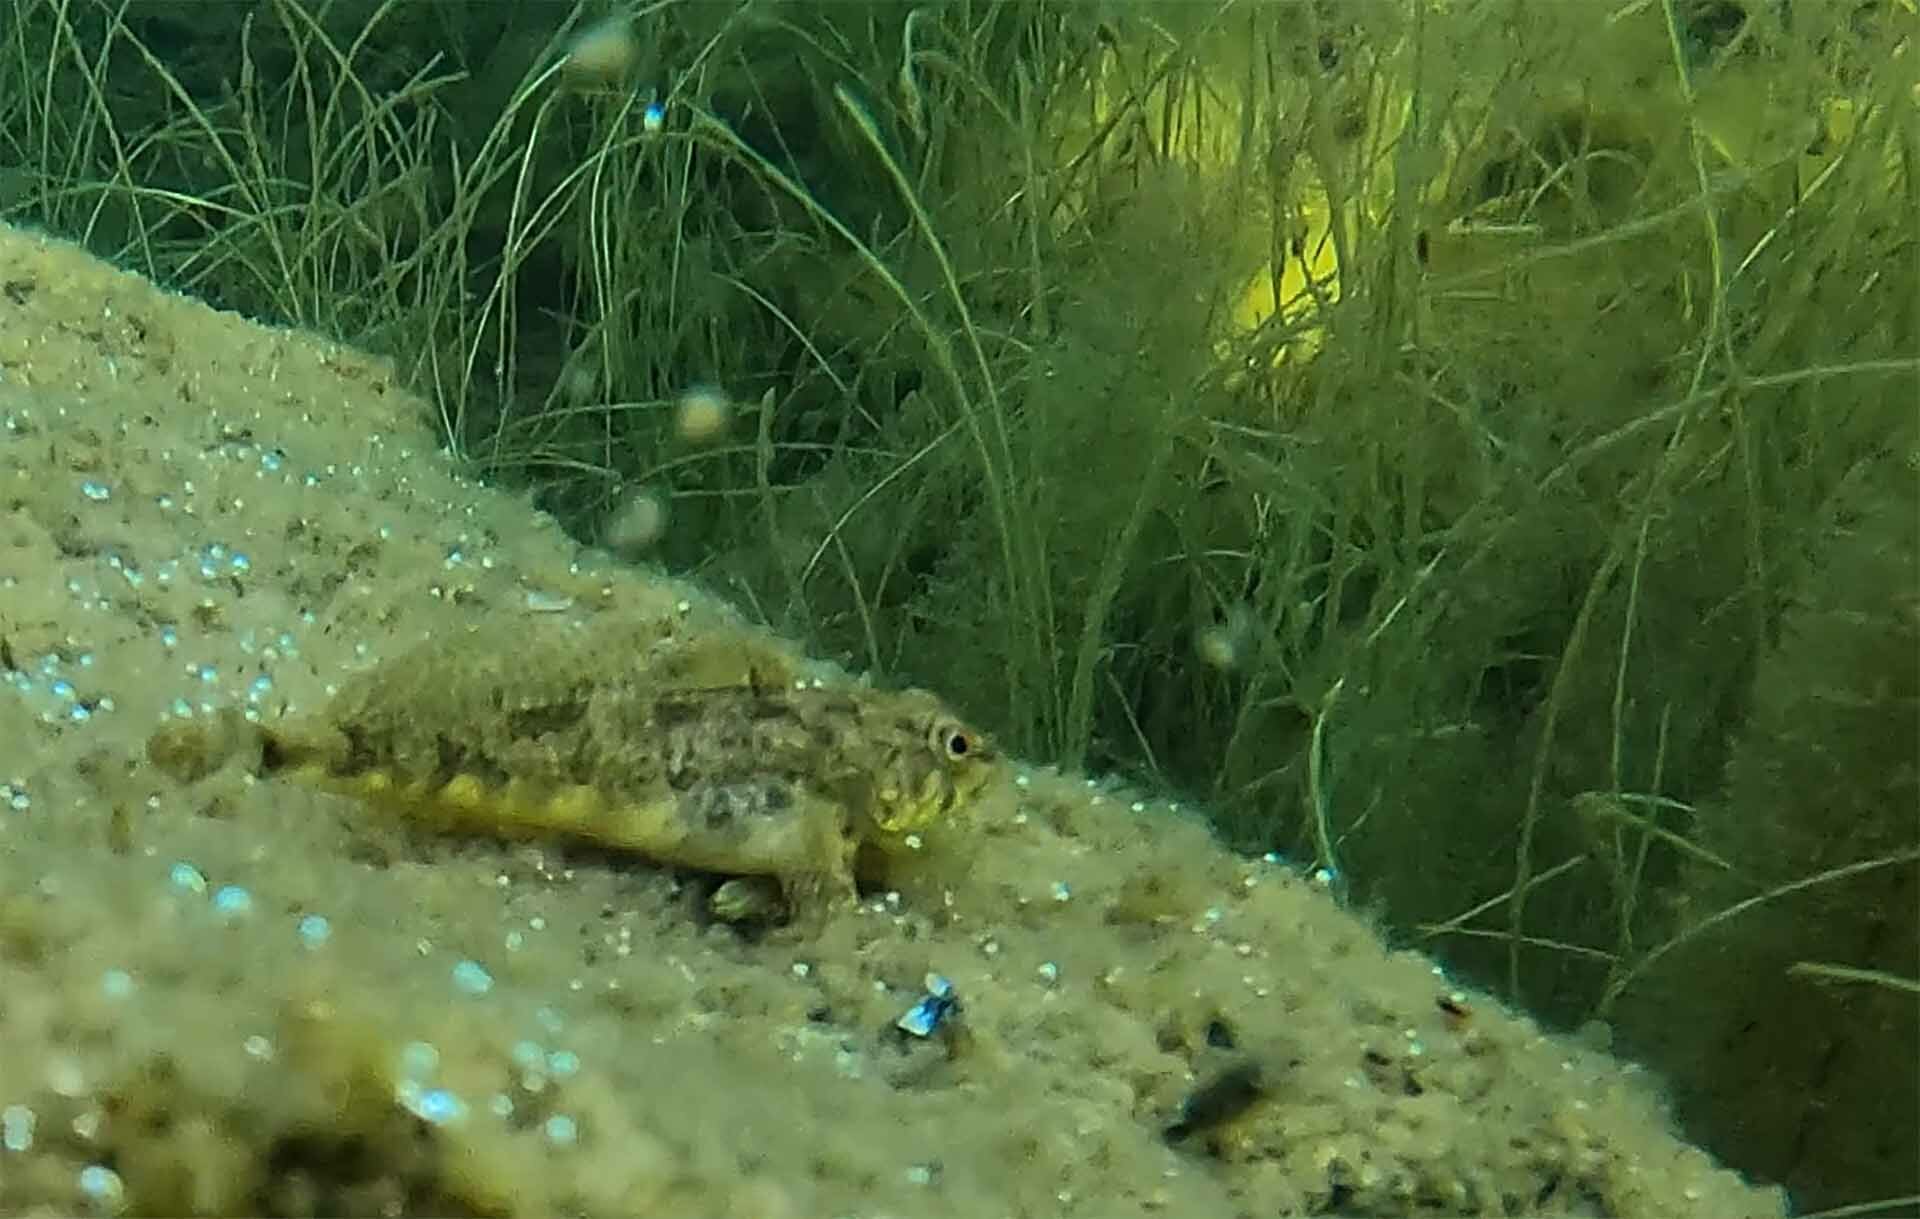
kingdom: Animalia
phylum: Chordata
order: Scorpaeniformes
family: Cottidae
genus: Cottus
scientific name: Cottus aleuticus
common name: Coastrange sculpin
